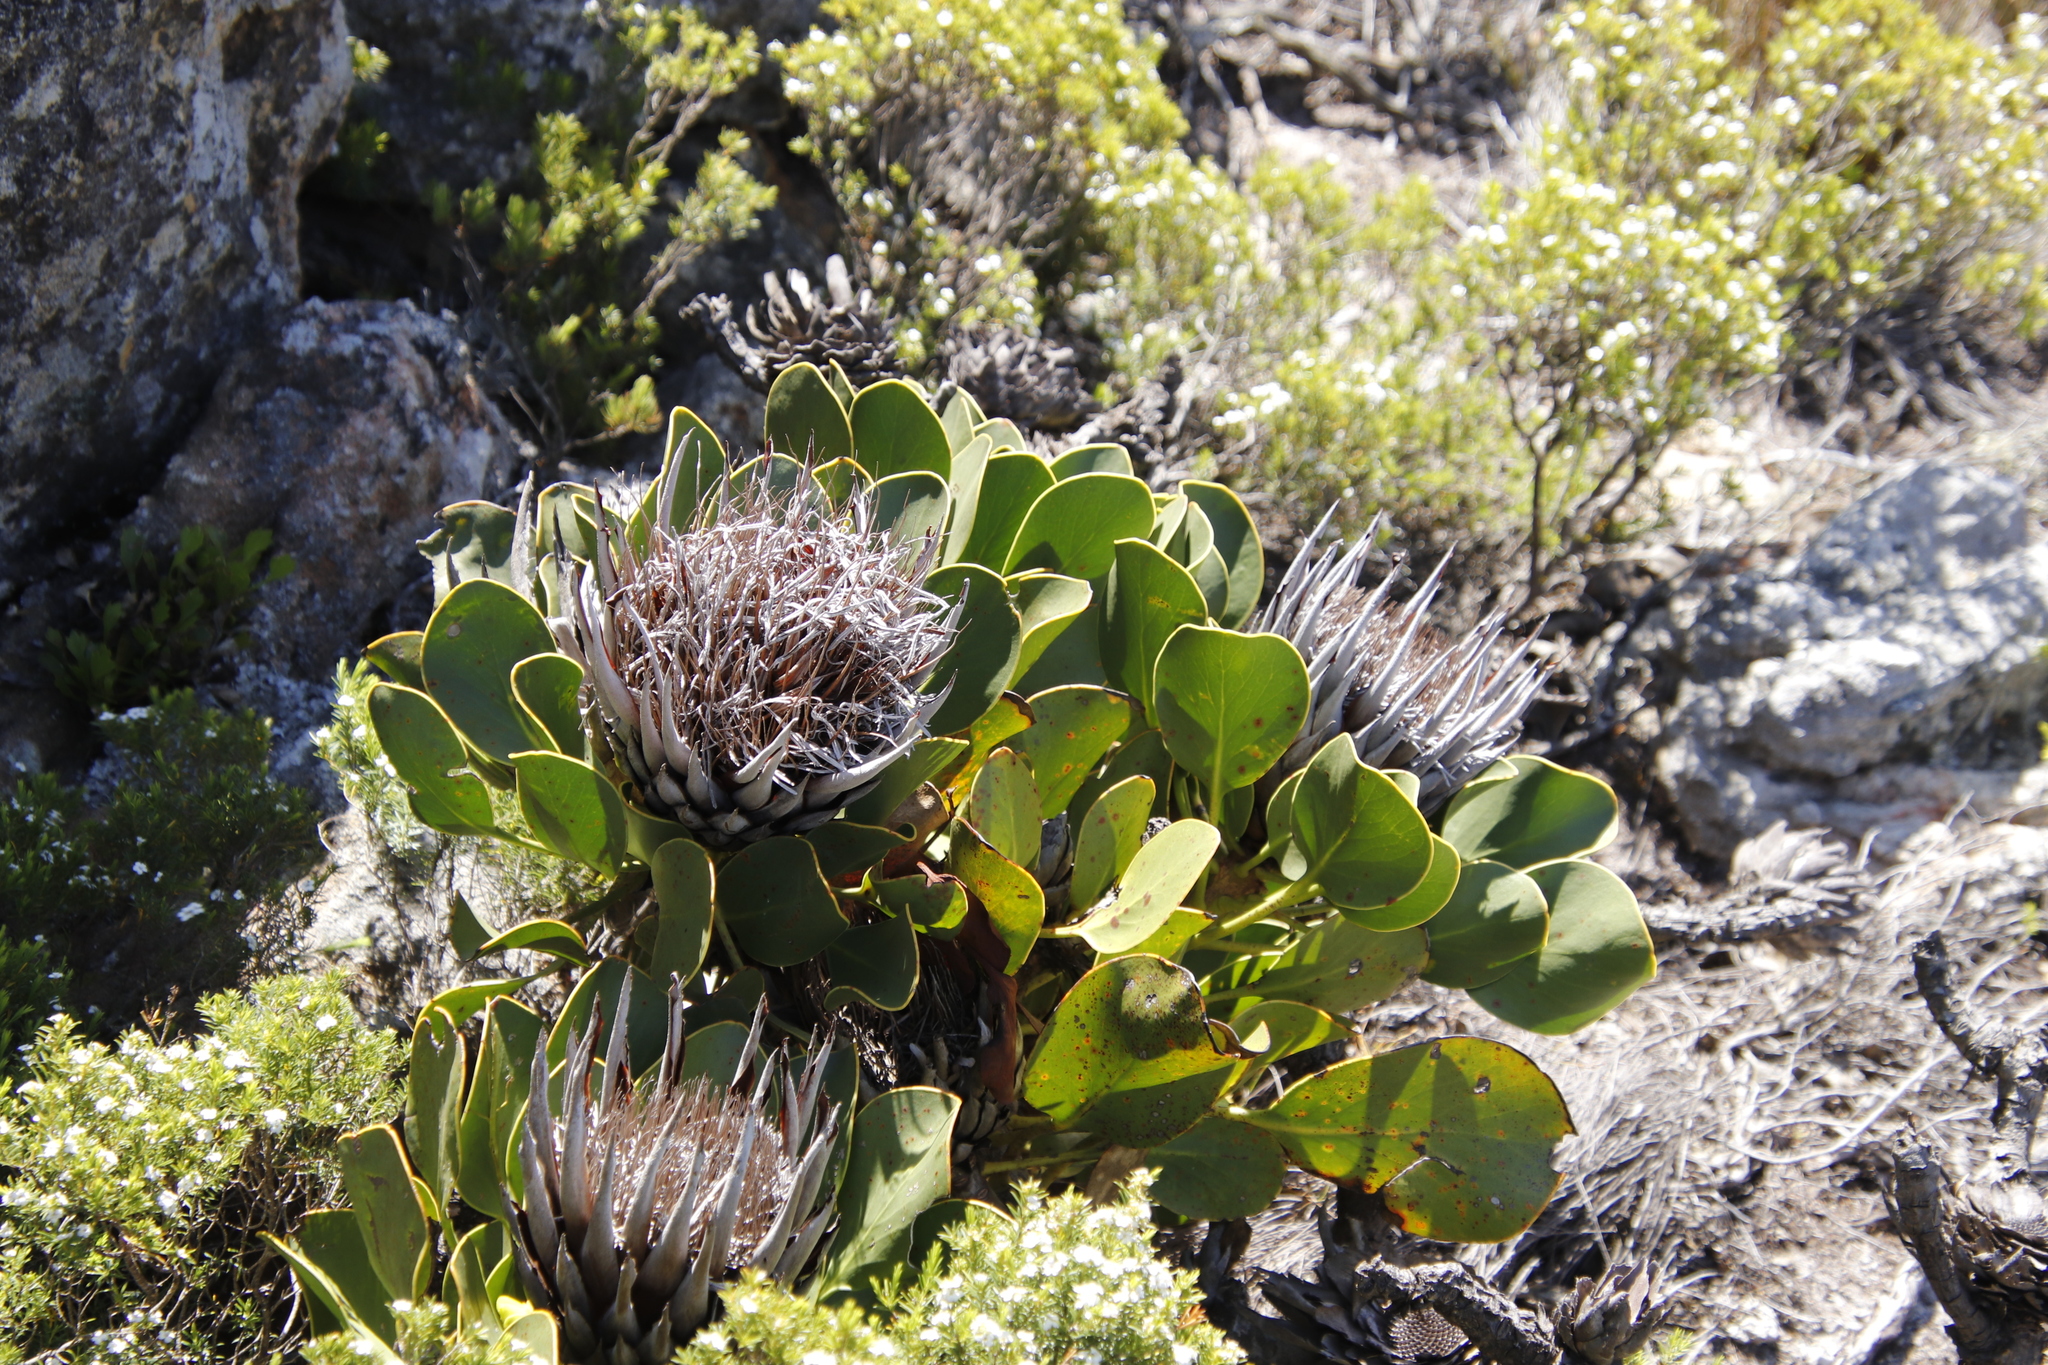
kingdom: Plantae
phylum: Tracheophyta
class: Magnoliopsida
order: Proteales
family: Proteaceae
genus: Protea
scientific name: Protea cynaroides
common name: King protea
